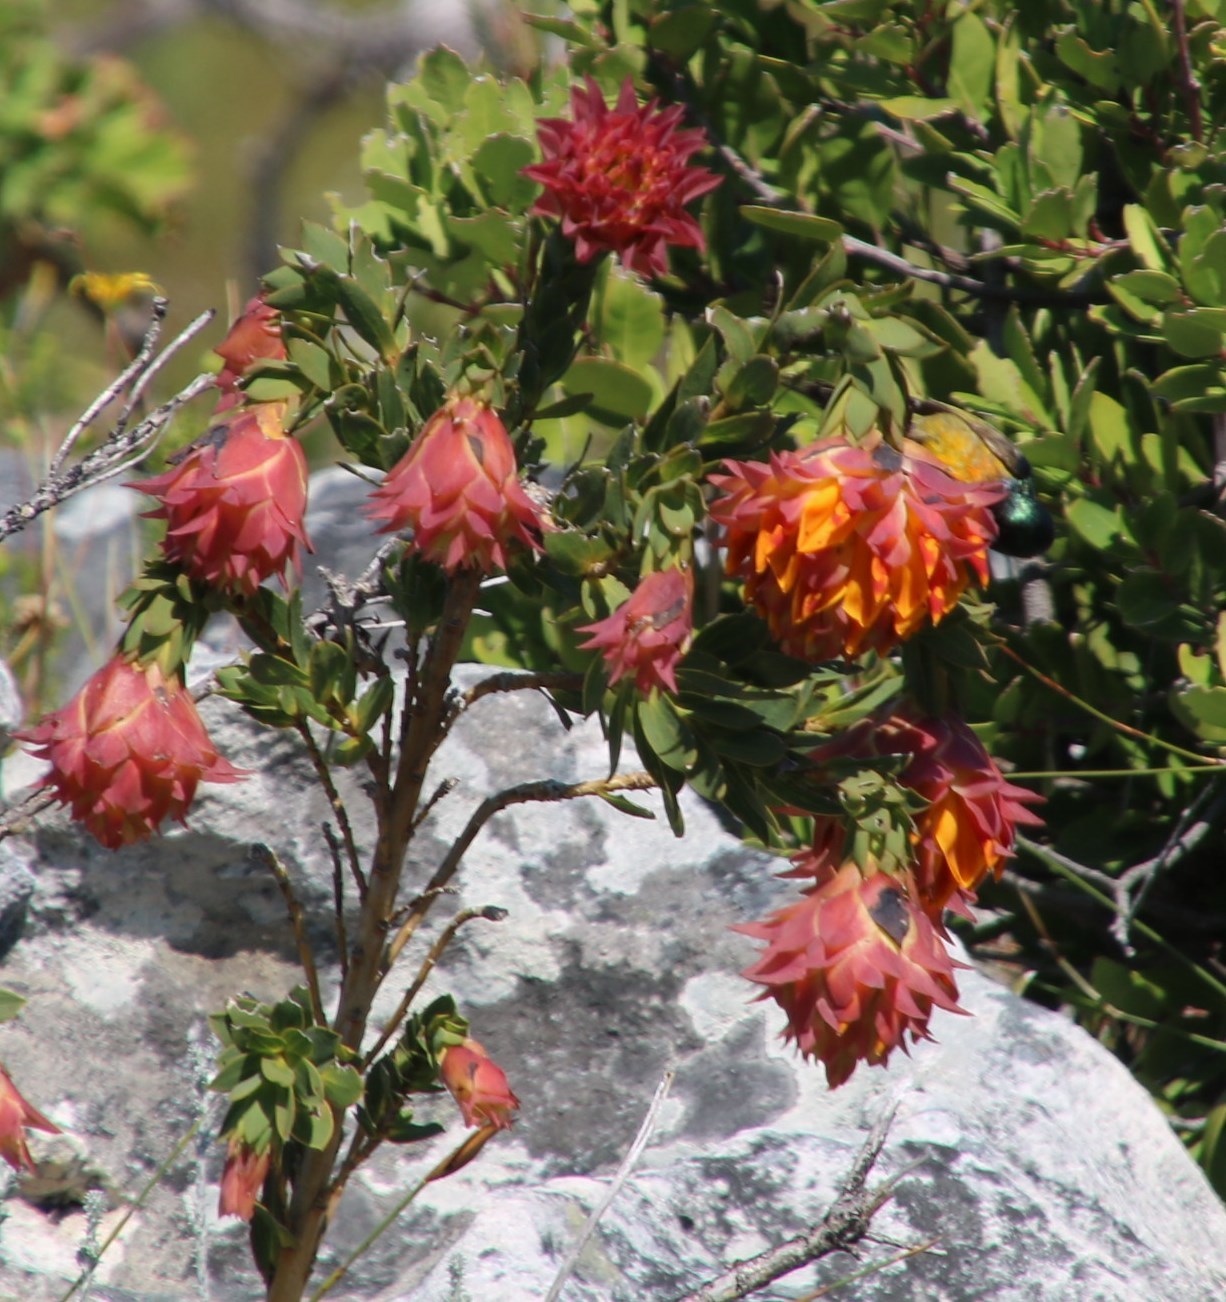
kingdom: Animalia
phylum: Chordata
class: Aves
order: Passeriformes
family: Nectariniidae
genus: Anthobaphes
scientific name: Anthobaphes violacea
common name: Orange-breasted sunbird
